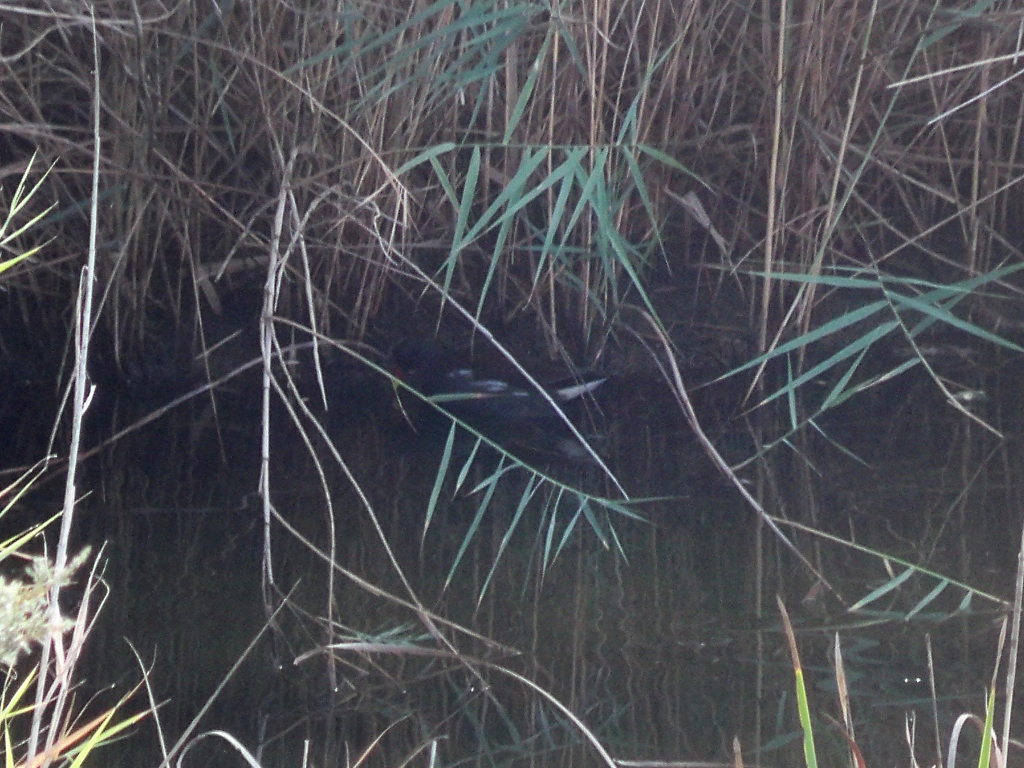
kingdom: Animalia
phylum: Chordata
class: Aves
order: Gruiformes
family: Rallidae
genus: Gallinula
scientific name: Gallinula chloropus
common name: Common moorhen
